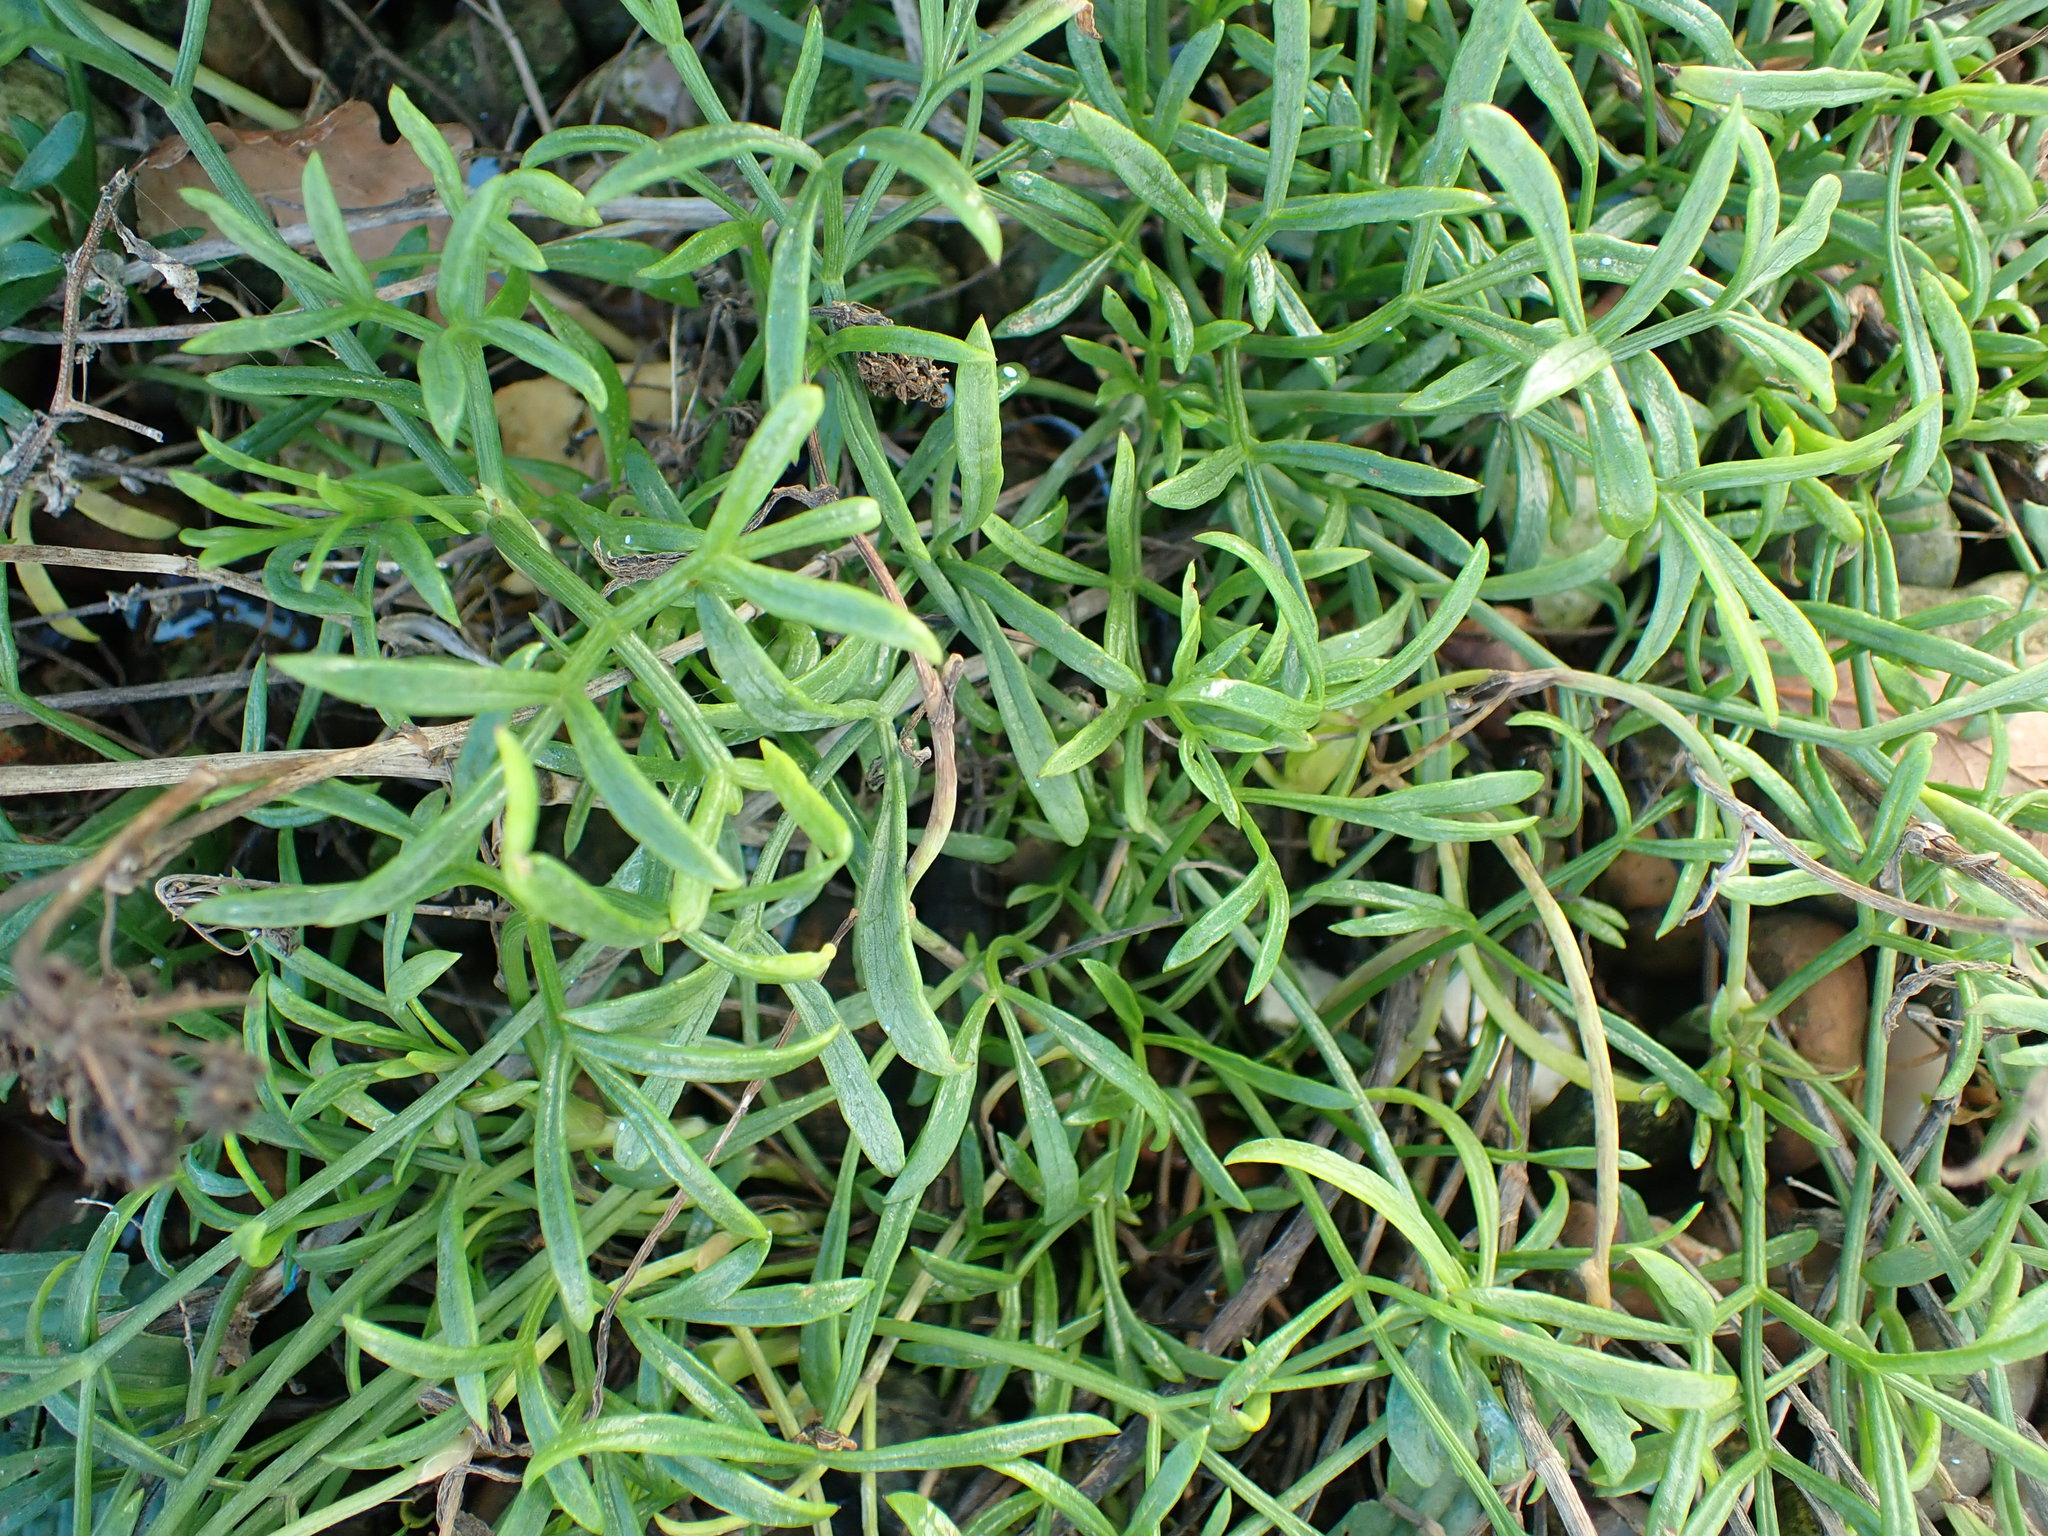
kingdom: Plantae
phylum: Tracheophyta
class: Magnoliopsida
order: Apiales
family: Apiaceae
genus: Crithmum
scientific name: Crithmum maritimum
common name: Rock samphire
